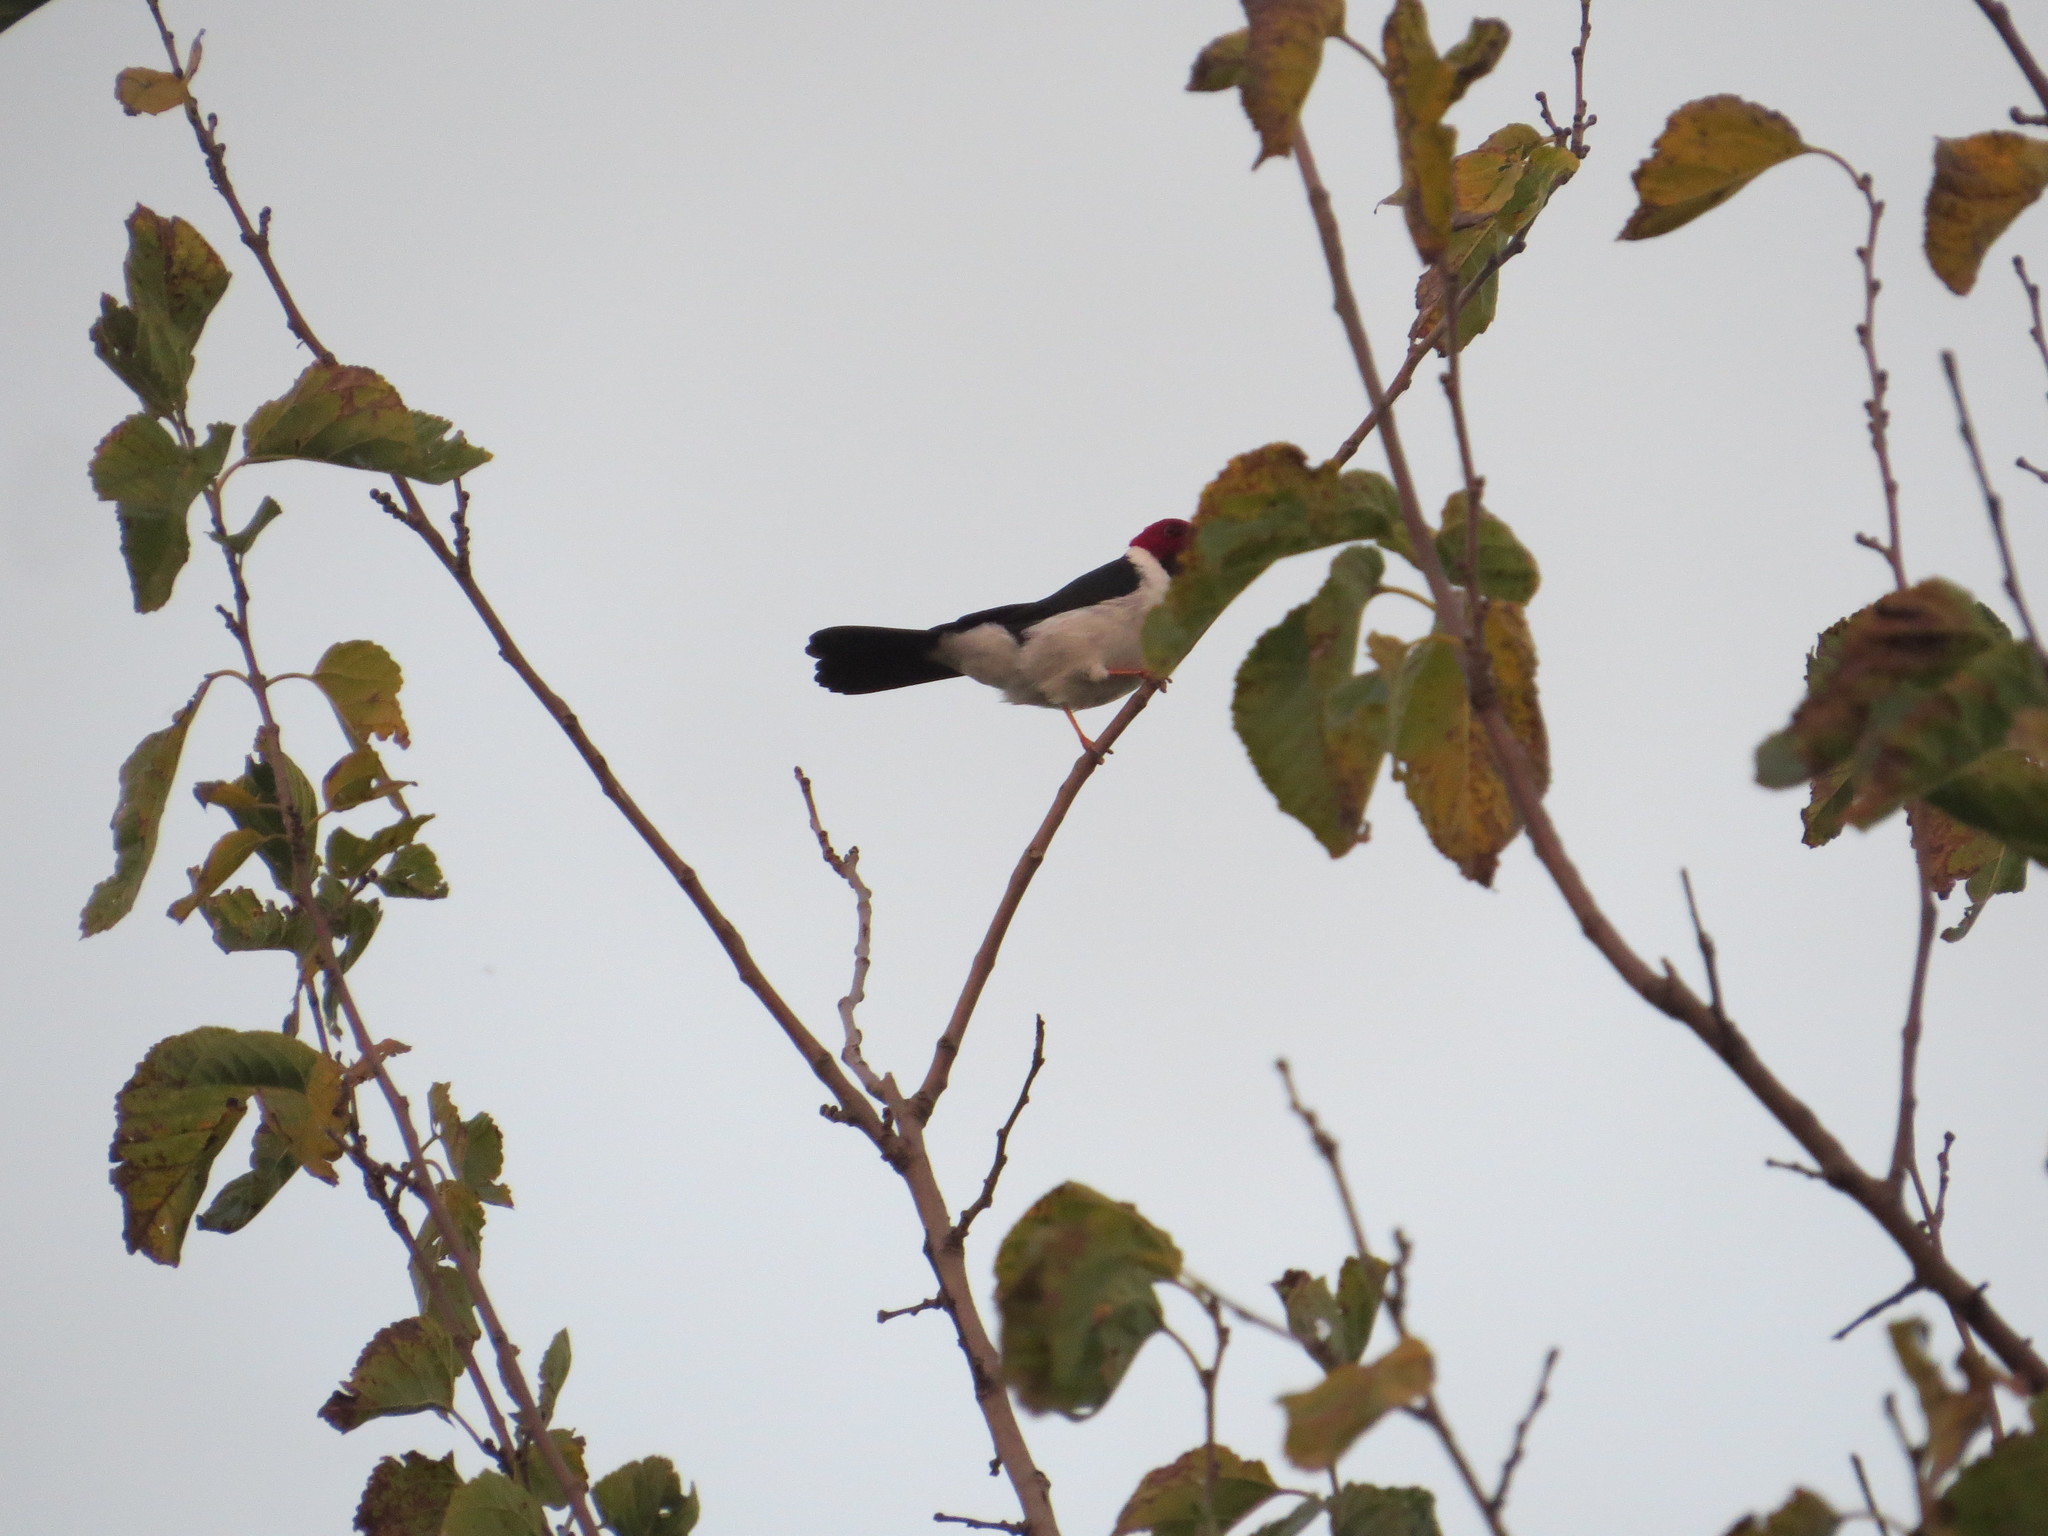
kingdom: Animalia
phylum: Chordata
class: Aves
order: Passeriformes
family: Thraupidae
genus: Paroaria
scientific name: Paroaria capitata
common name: Yellow-billed cardinal
